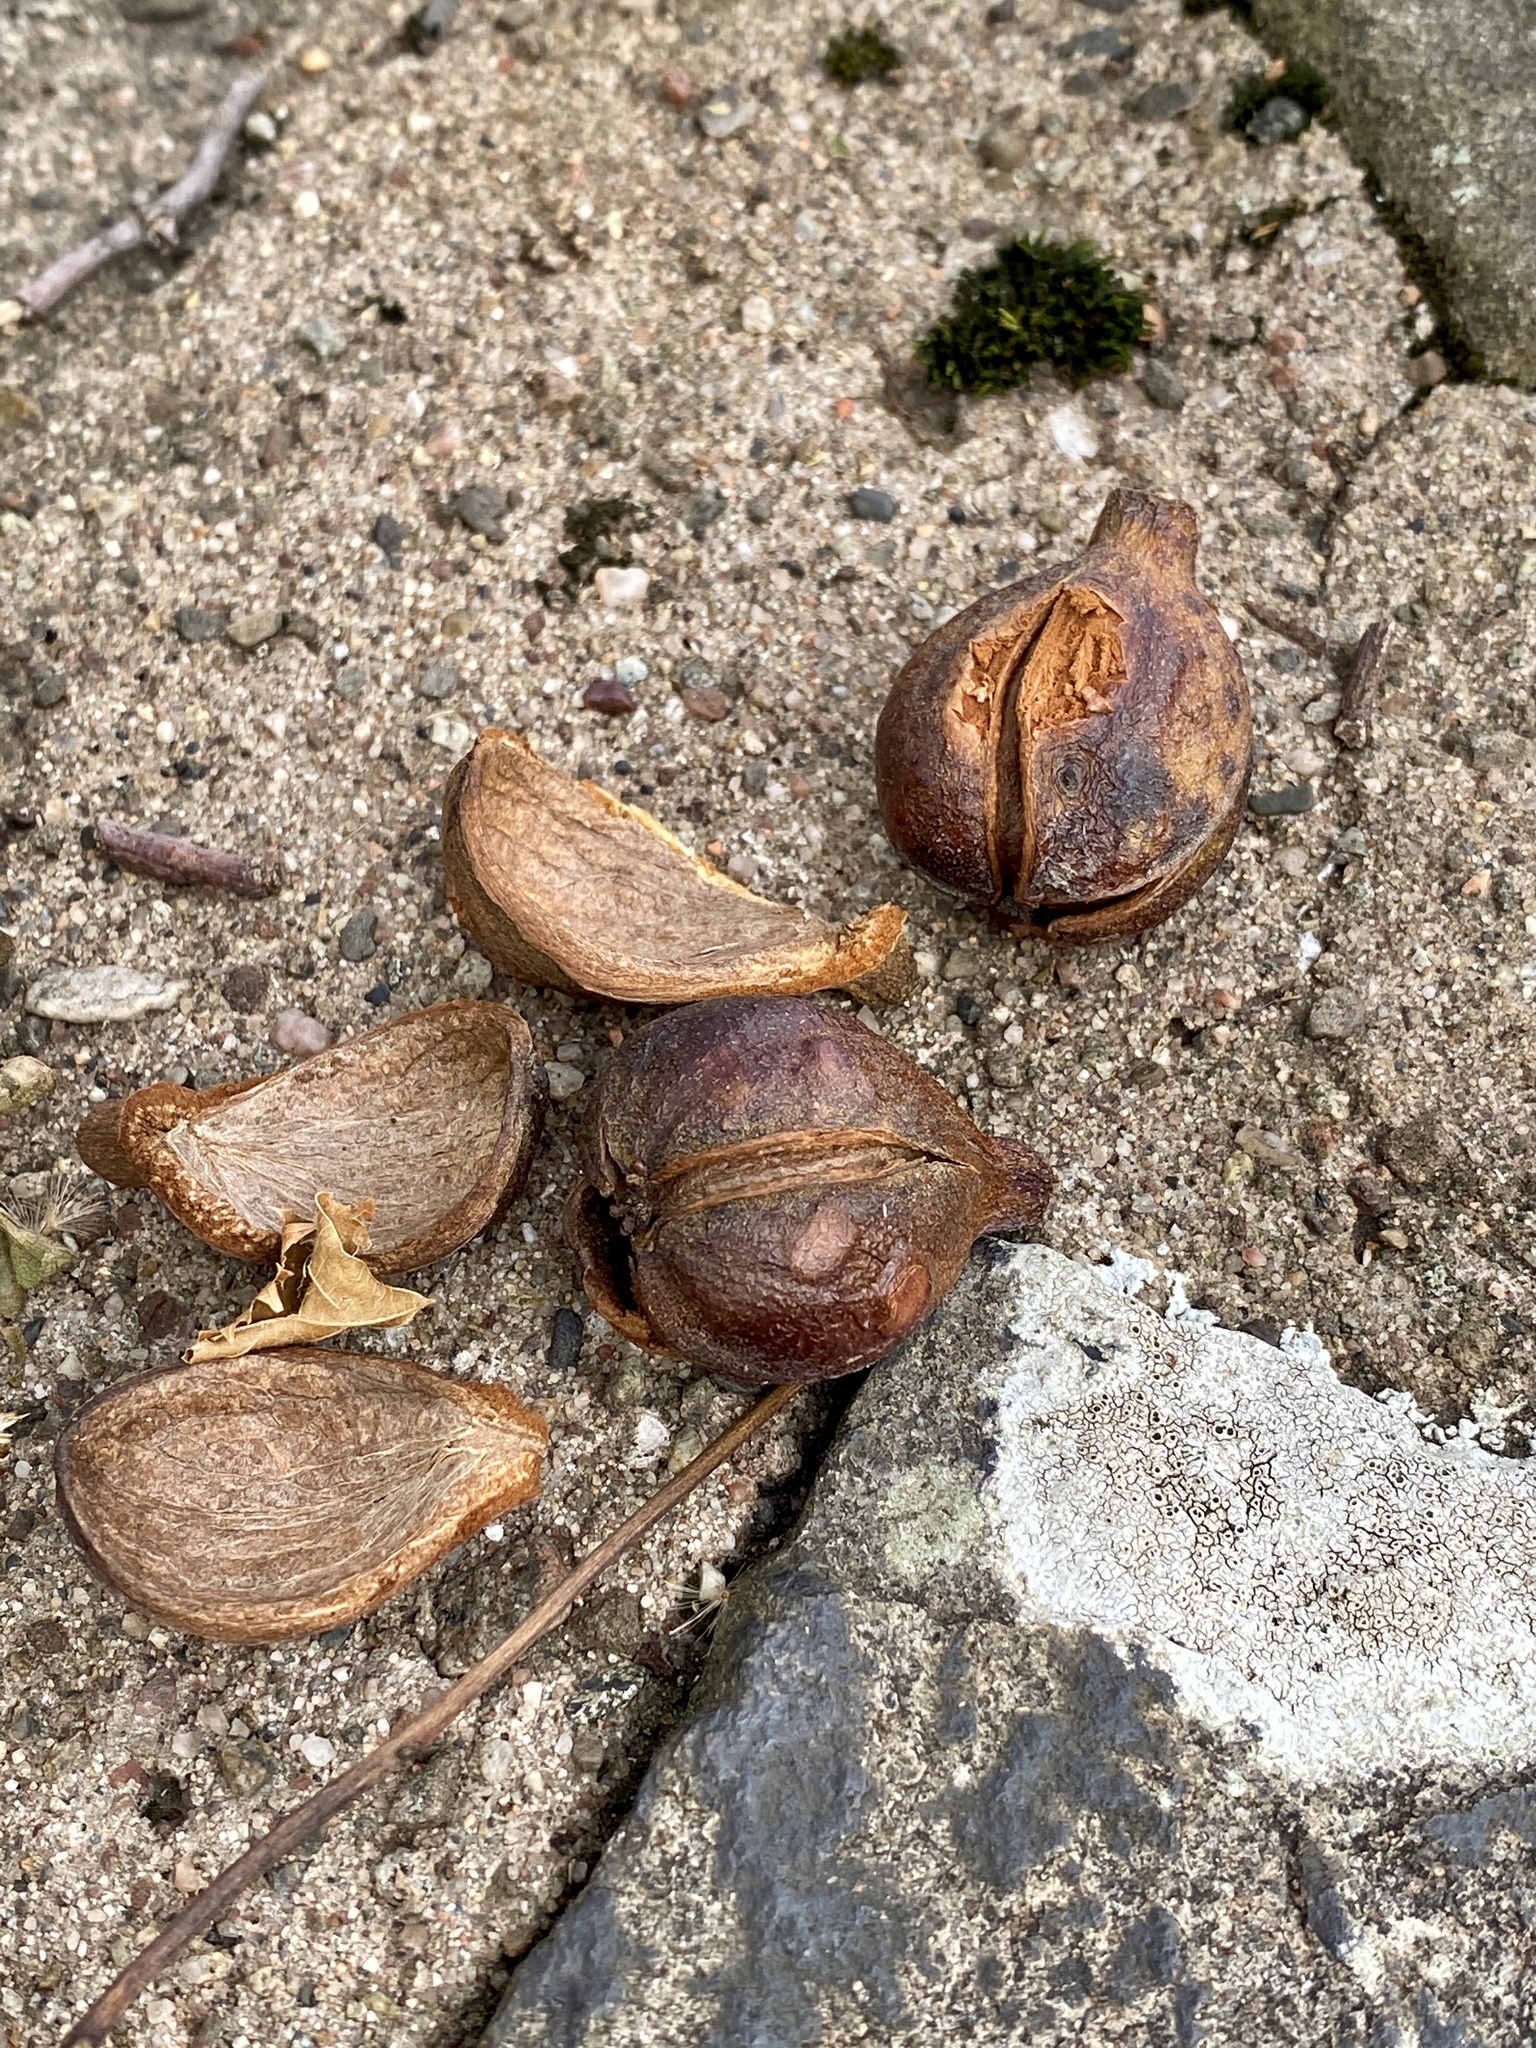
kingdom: Plantae
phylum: Tracheophyta
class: Magnoliopsida
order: Fagales
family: Juglandaceae
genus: Carya
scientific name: Carya glabra
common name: Pignut hickory
